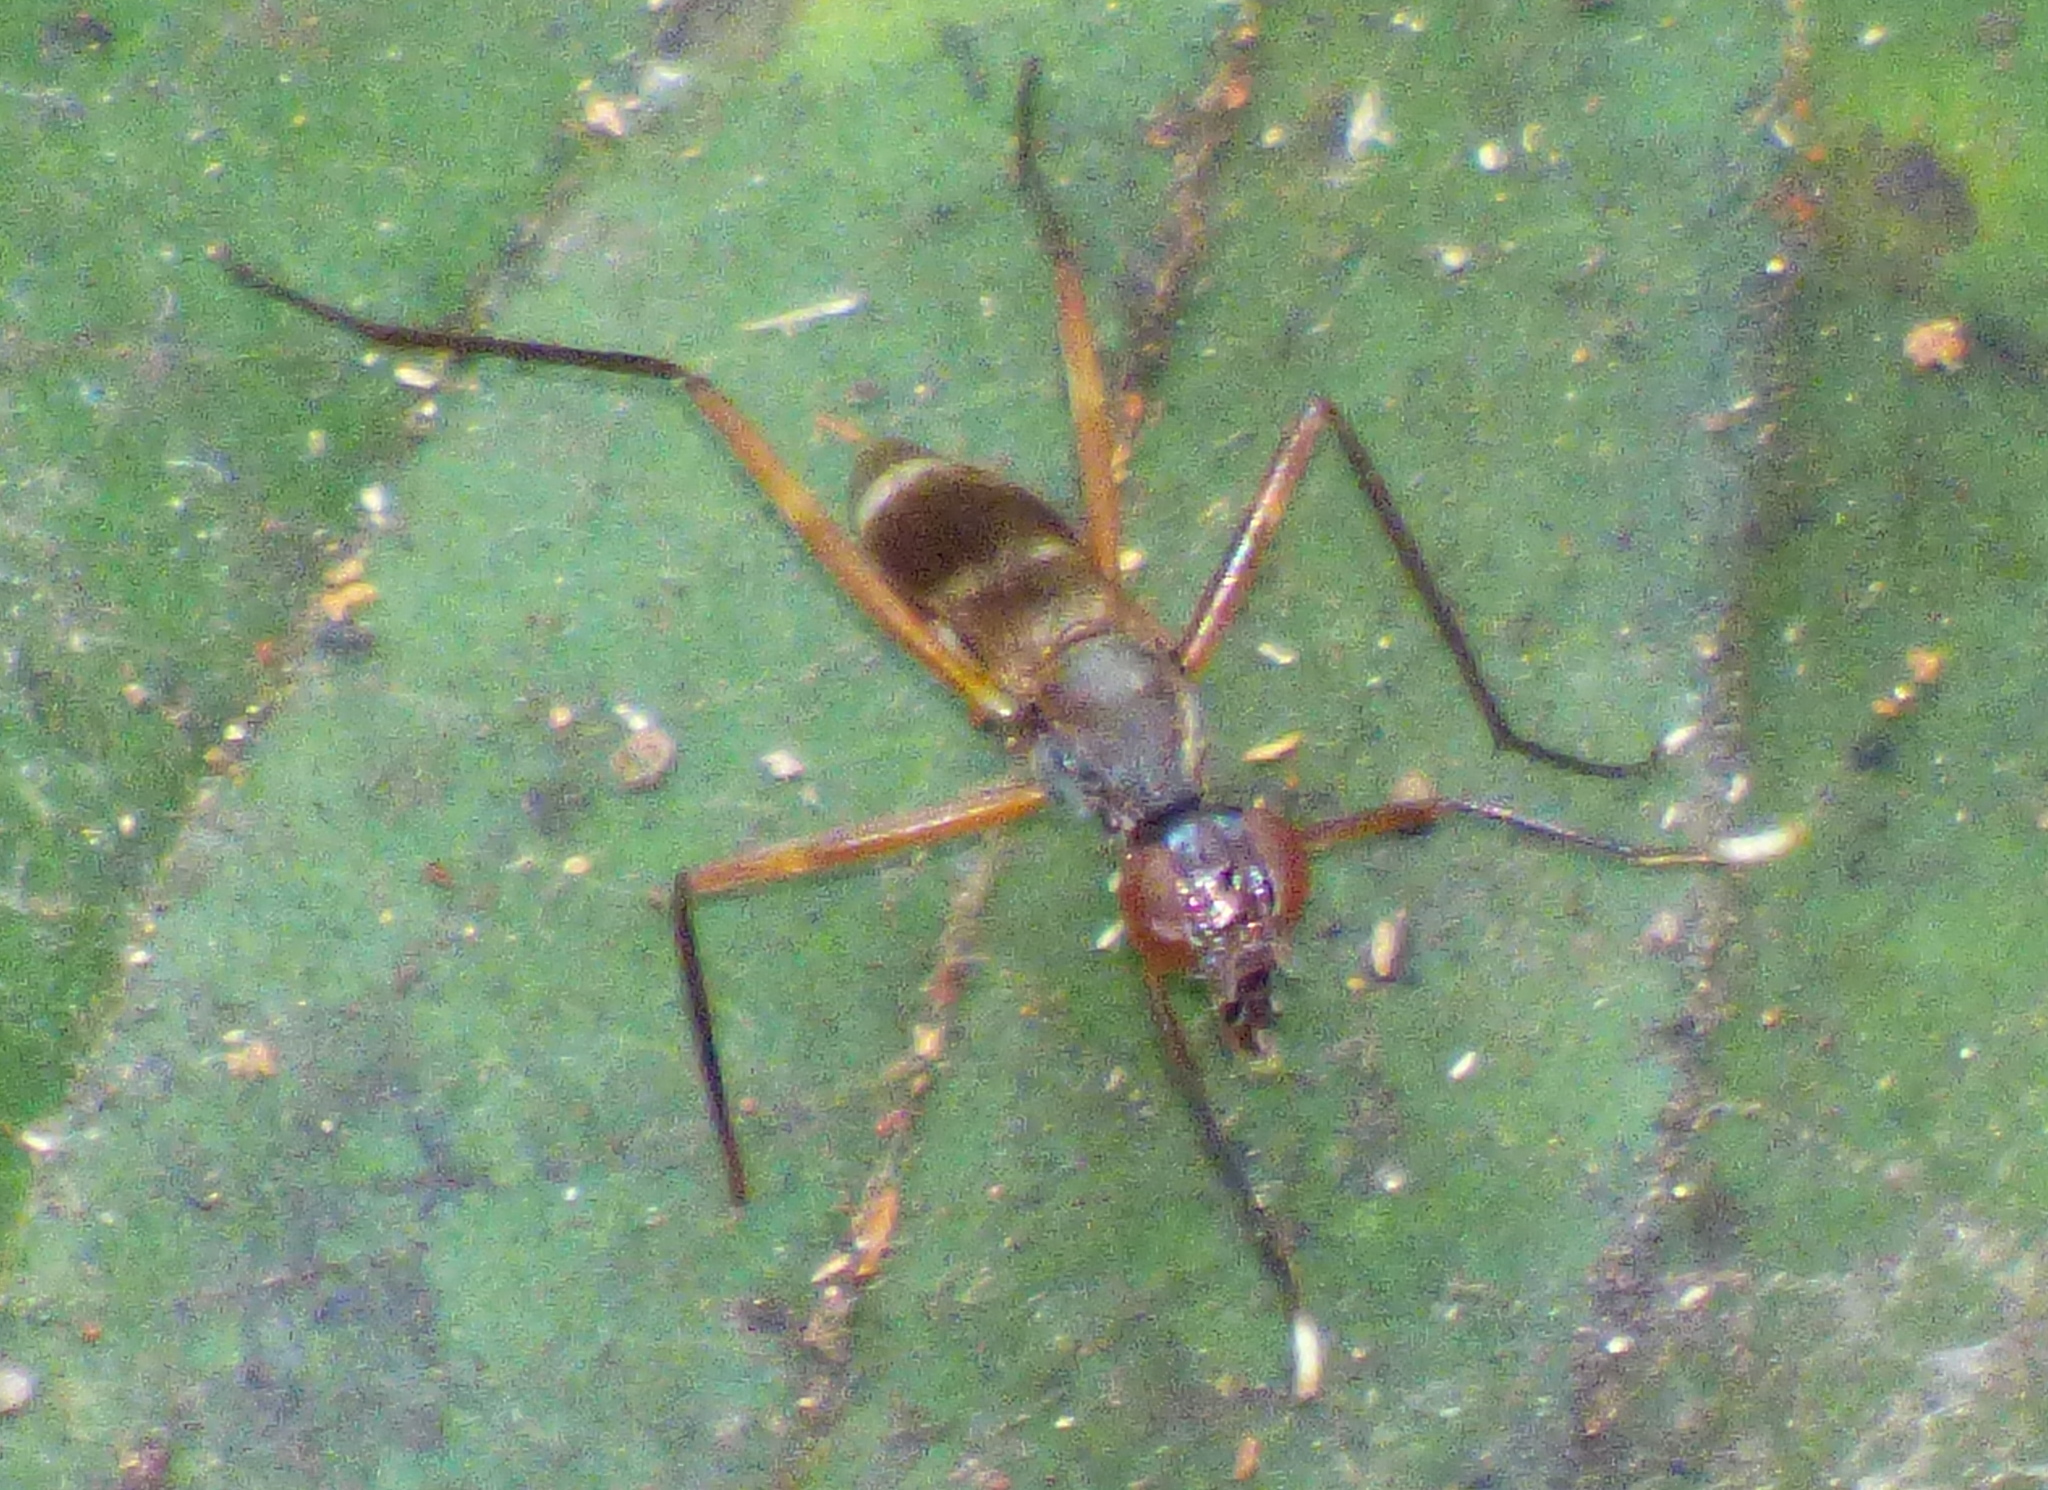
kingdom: Animalia
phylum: Arthropoda
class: Insecta
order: Diptera
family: Micropezidae
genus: Taeniaptera
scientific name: Taeniaptera trivittata
